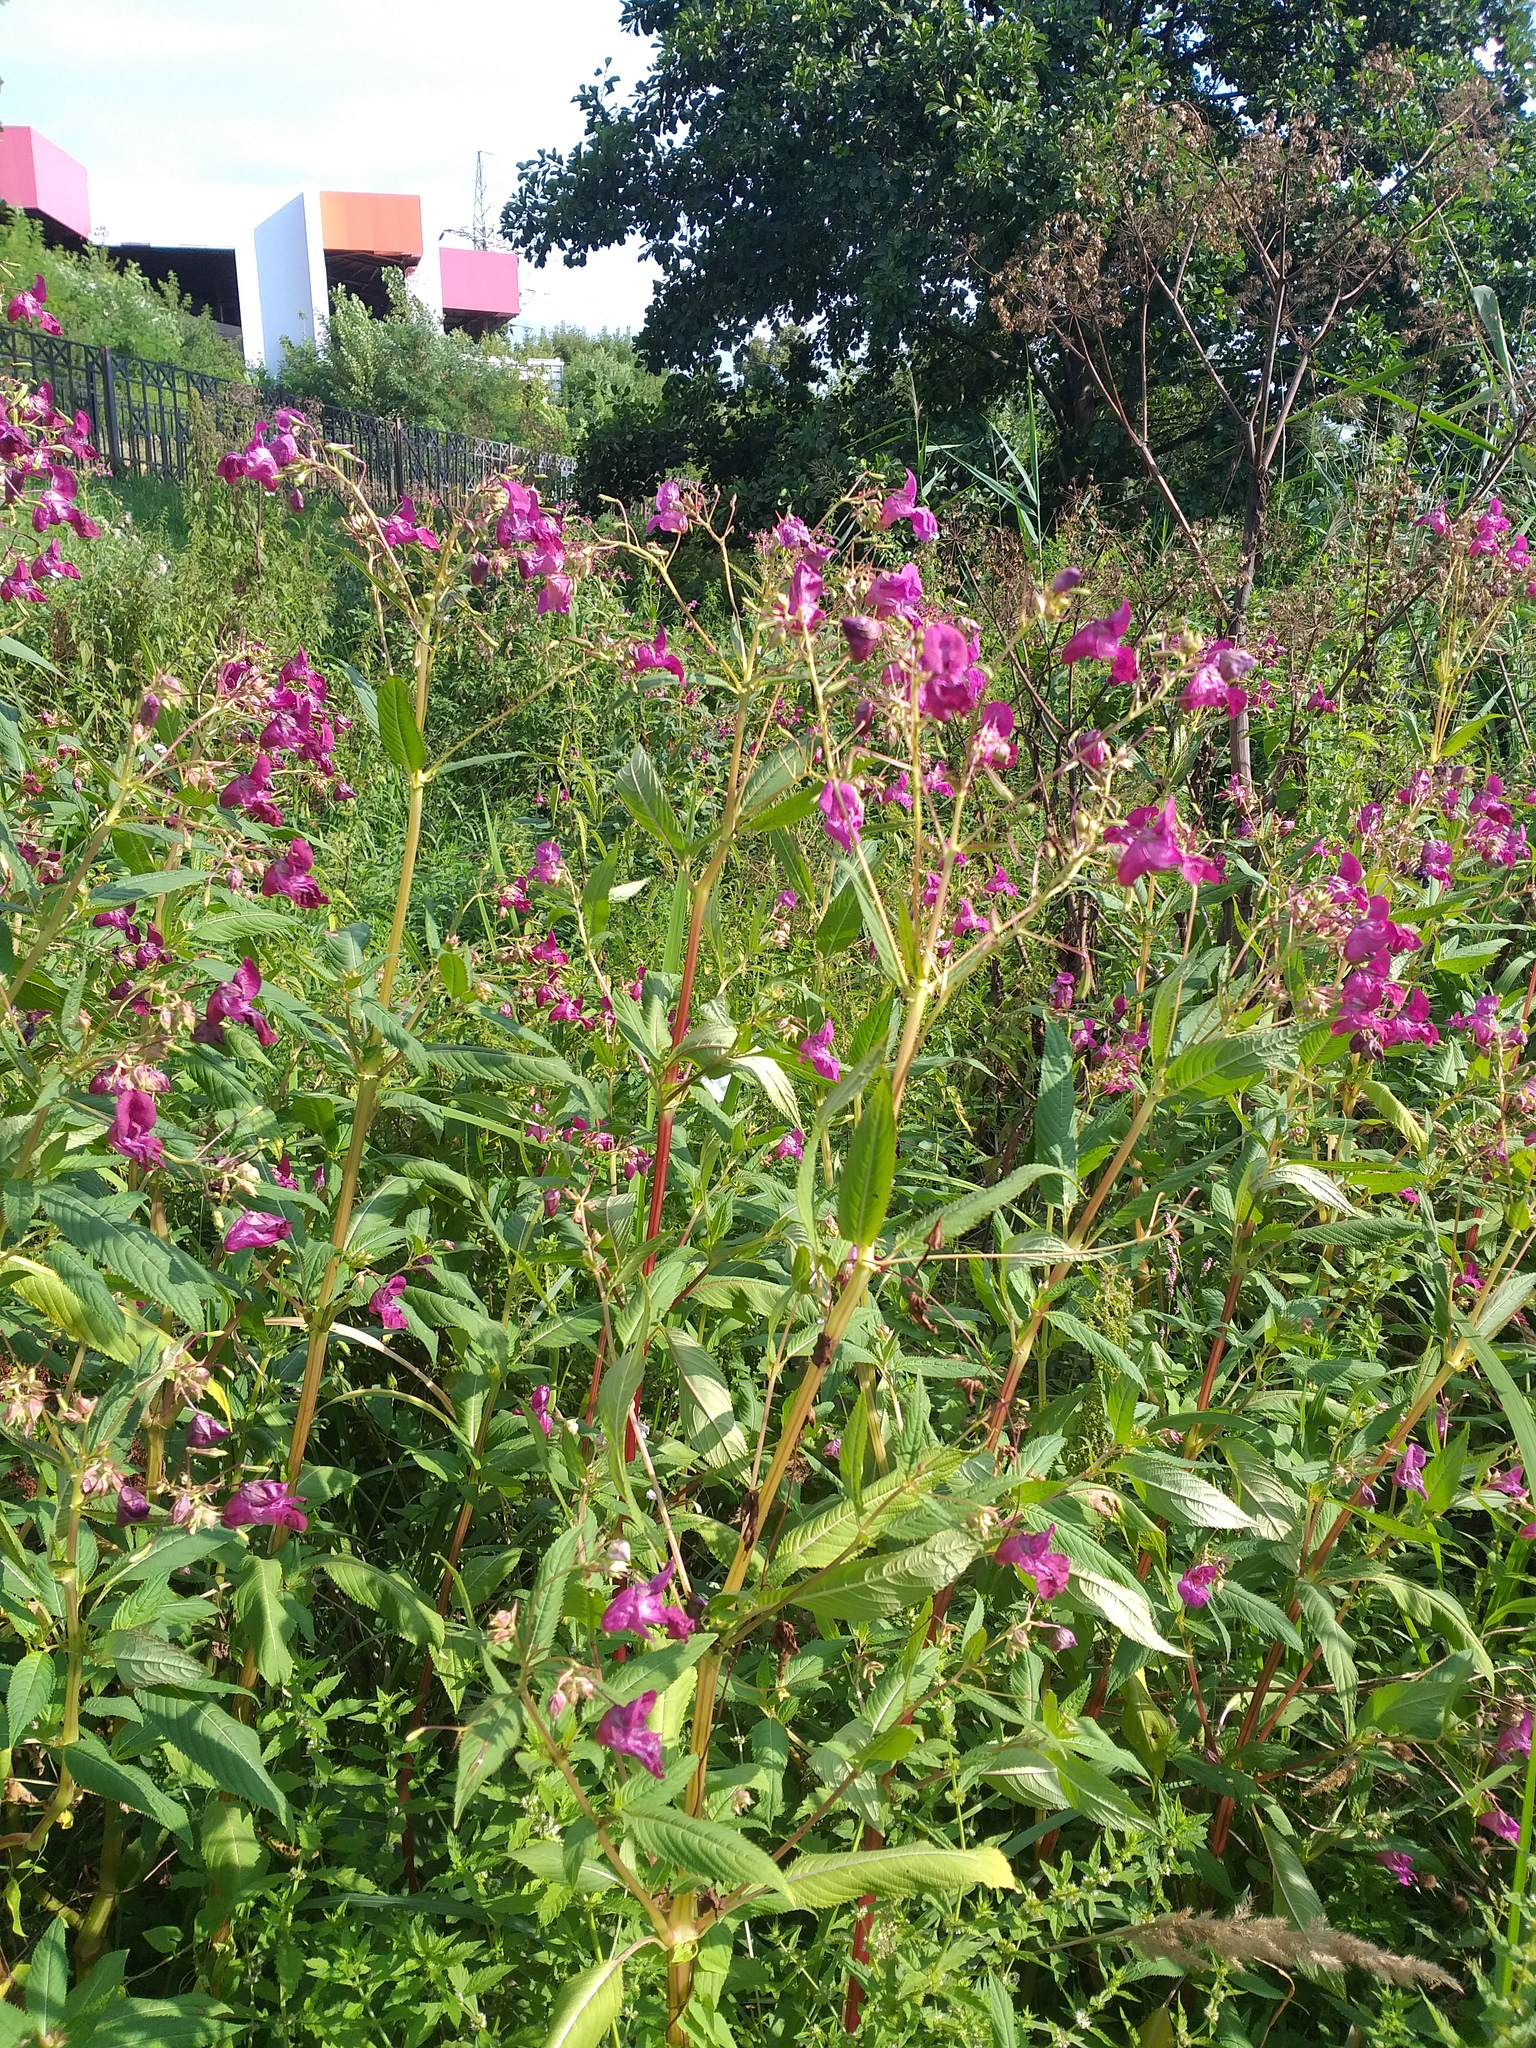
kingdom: Plantae
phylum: Tracheophyta
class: Magnoliopsida
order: Ericales
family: Balsaminaceae
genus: Impatiens
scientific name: Impatiens glandulifera
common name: Himalayan balsam
